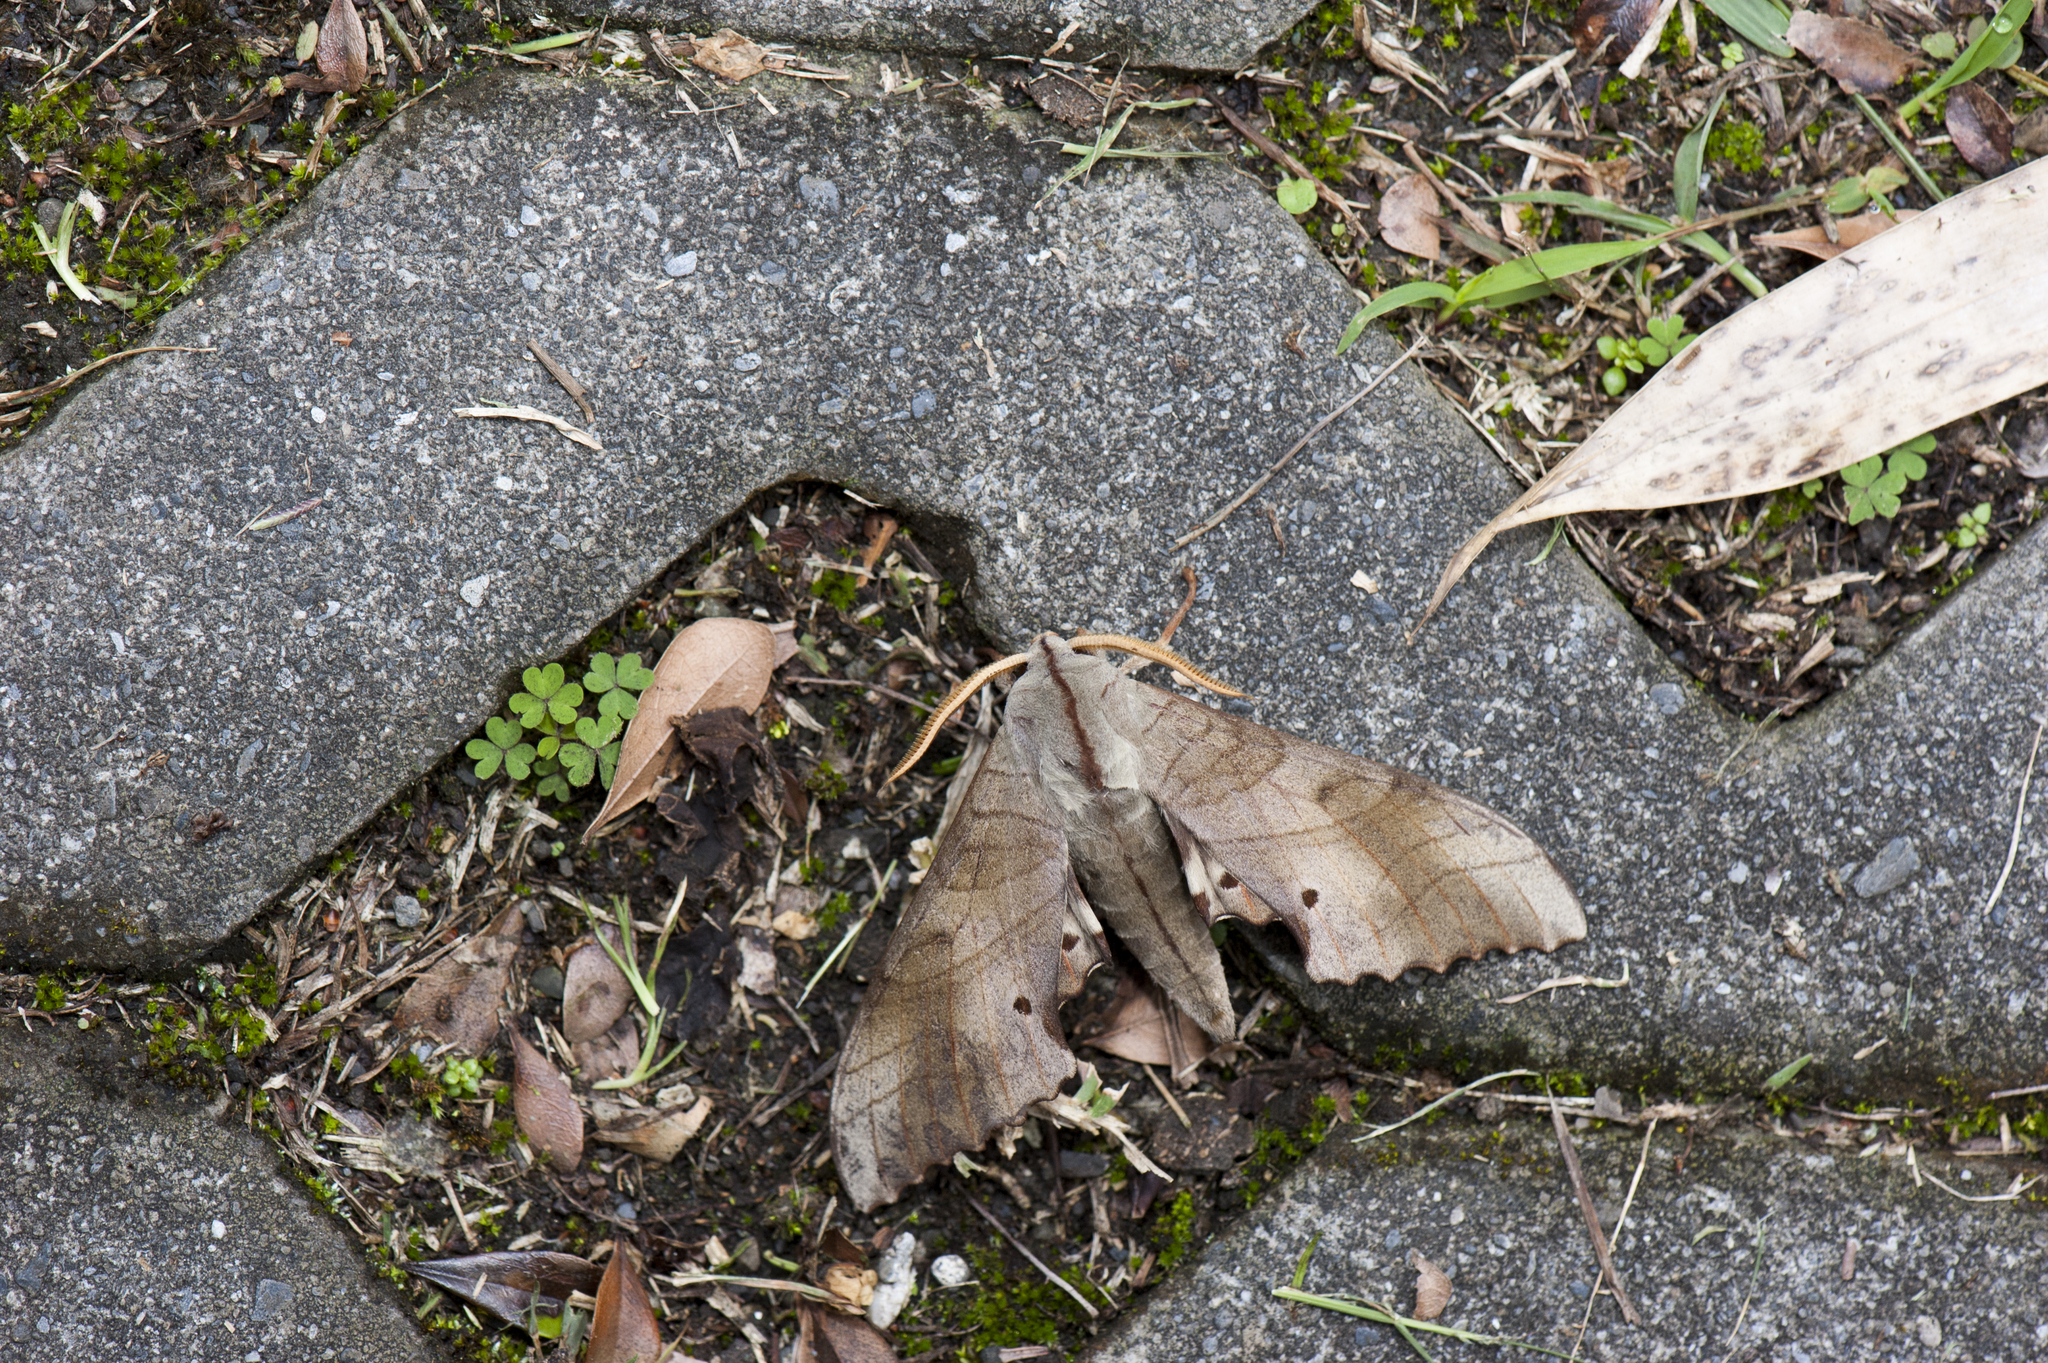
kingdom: Animalia
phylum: Arthropoda
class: Insecta
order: Lepidoptera
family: Sphingidae
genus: Marumba
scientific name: Marumba sperchius
